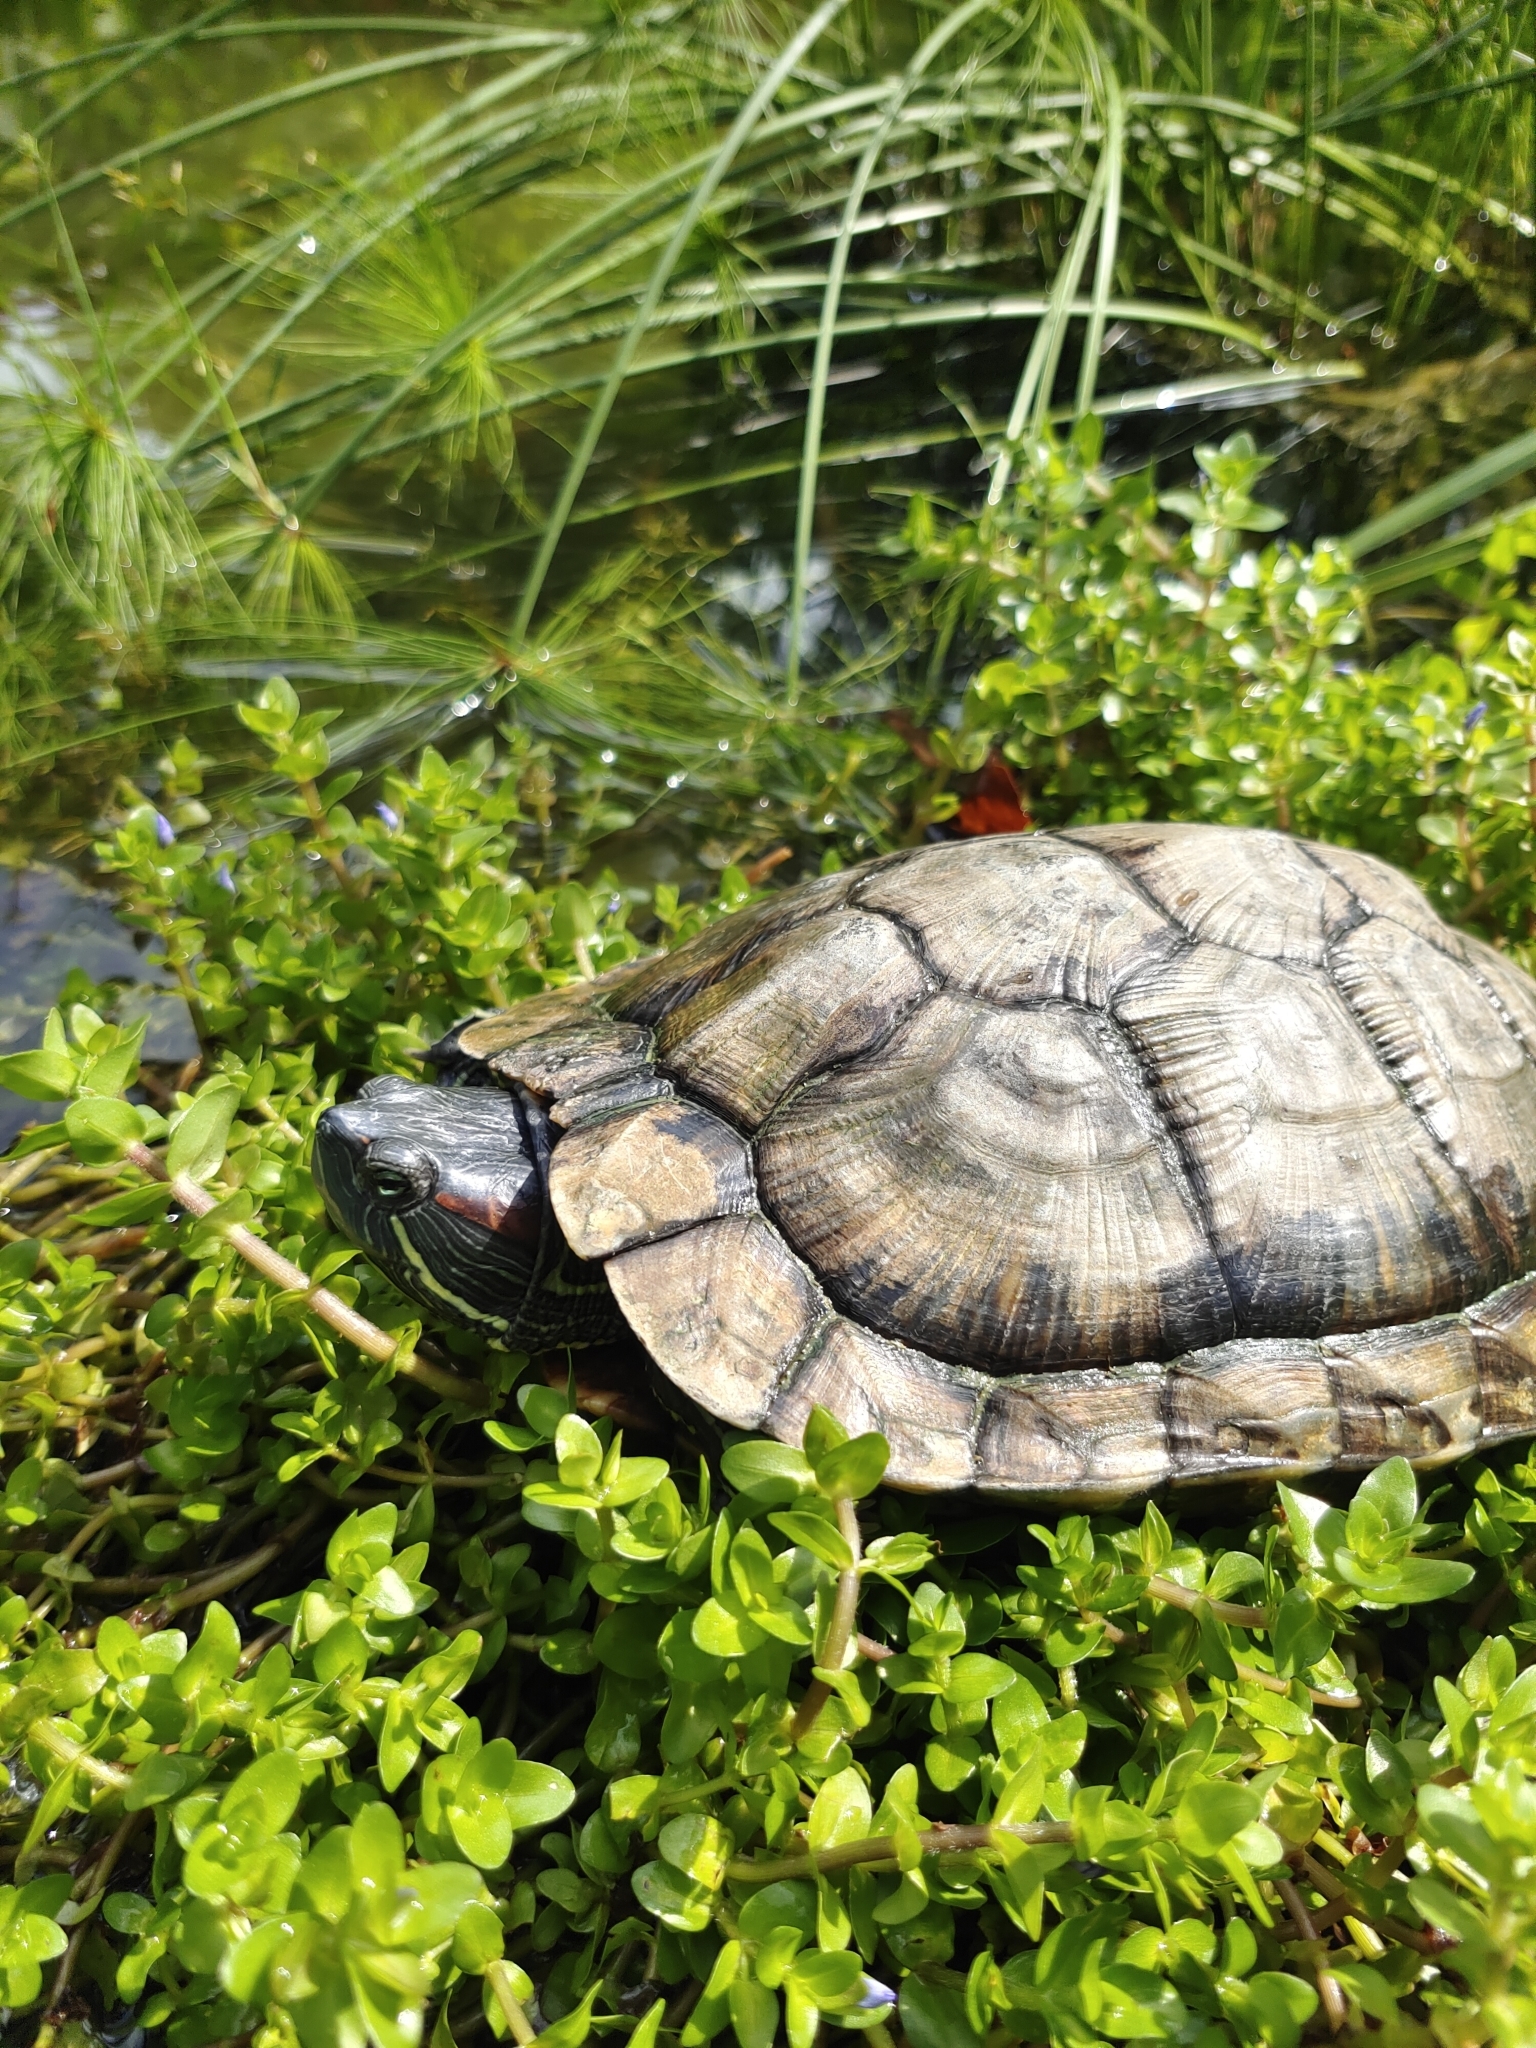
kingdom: Animalia
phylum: Chordata
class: Testudines
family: Emydidae
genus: Trachemys
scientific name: Trachemys scripta
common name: Slider
